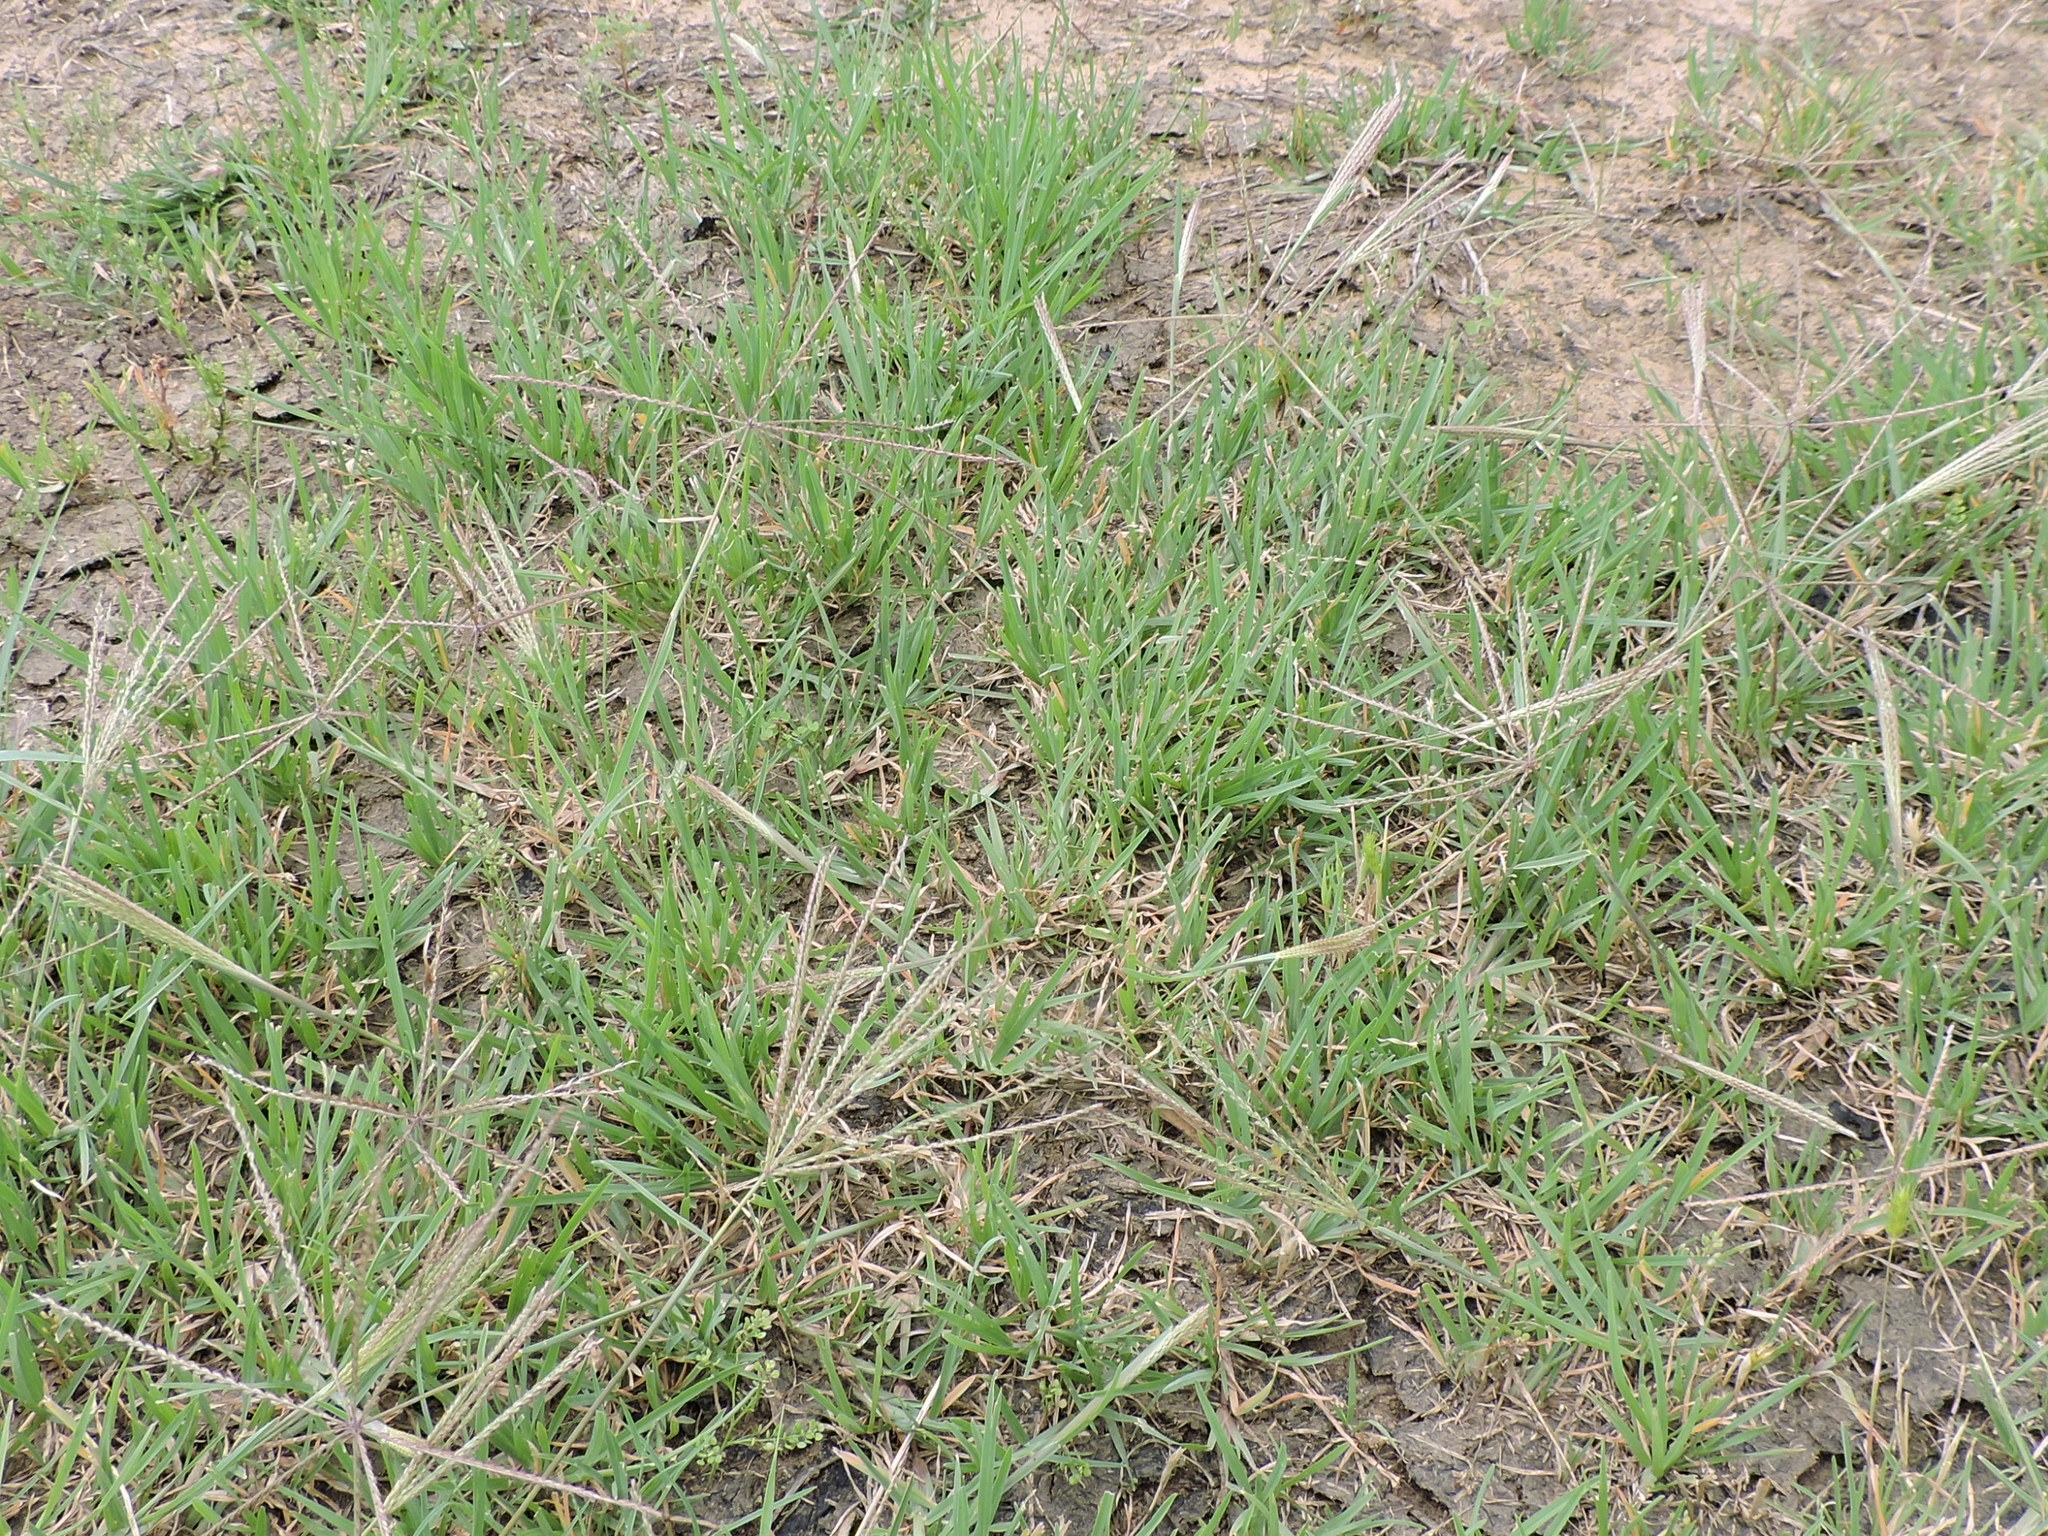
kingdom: Plantae
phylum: Tracheophyta
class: Liliopsida
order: Poales
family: Poaceae
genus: Chloris
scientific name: Chloris verticillata
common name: Tumble windmill grass
